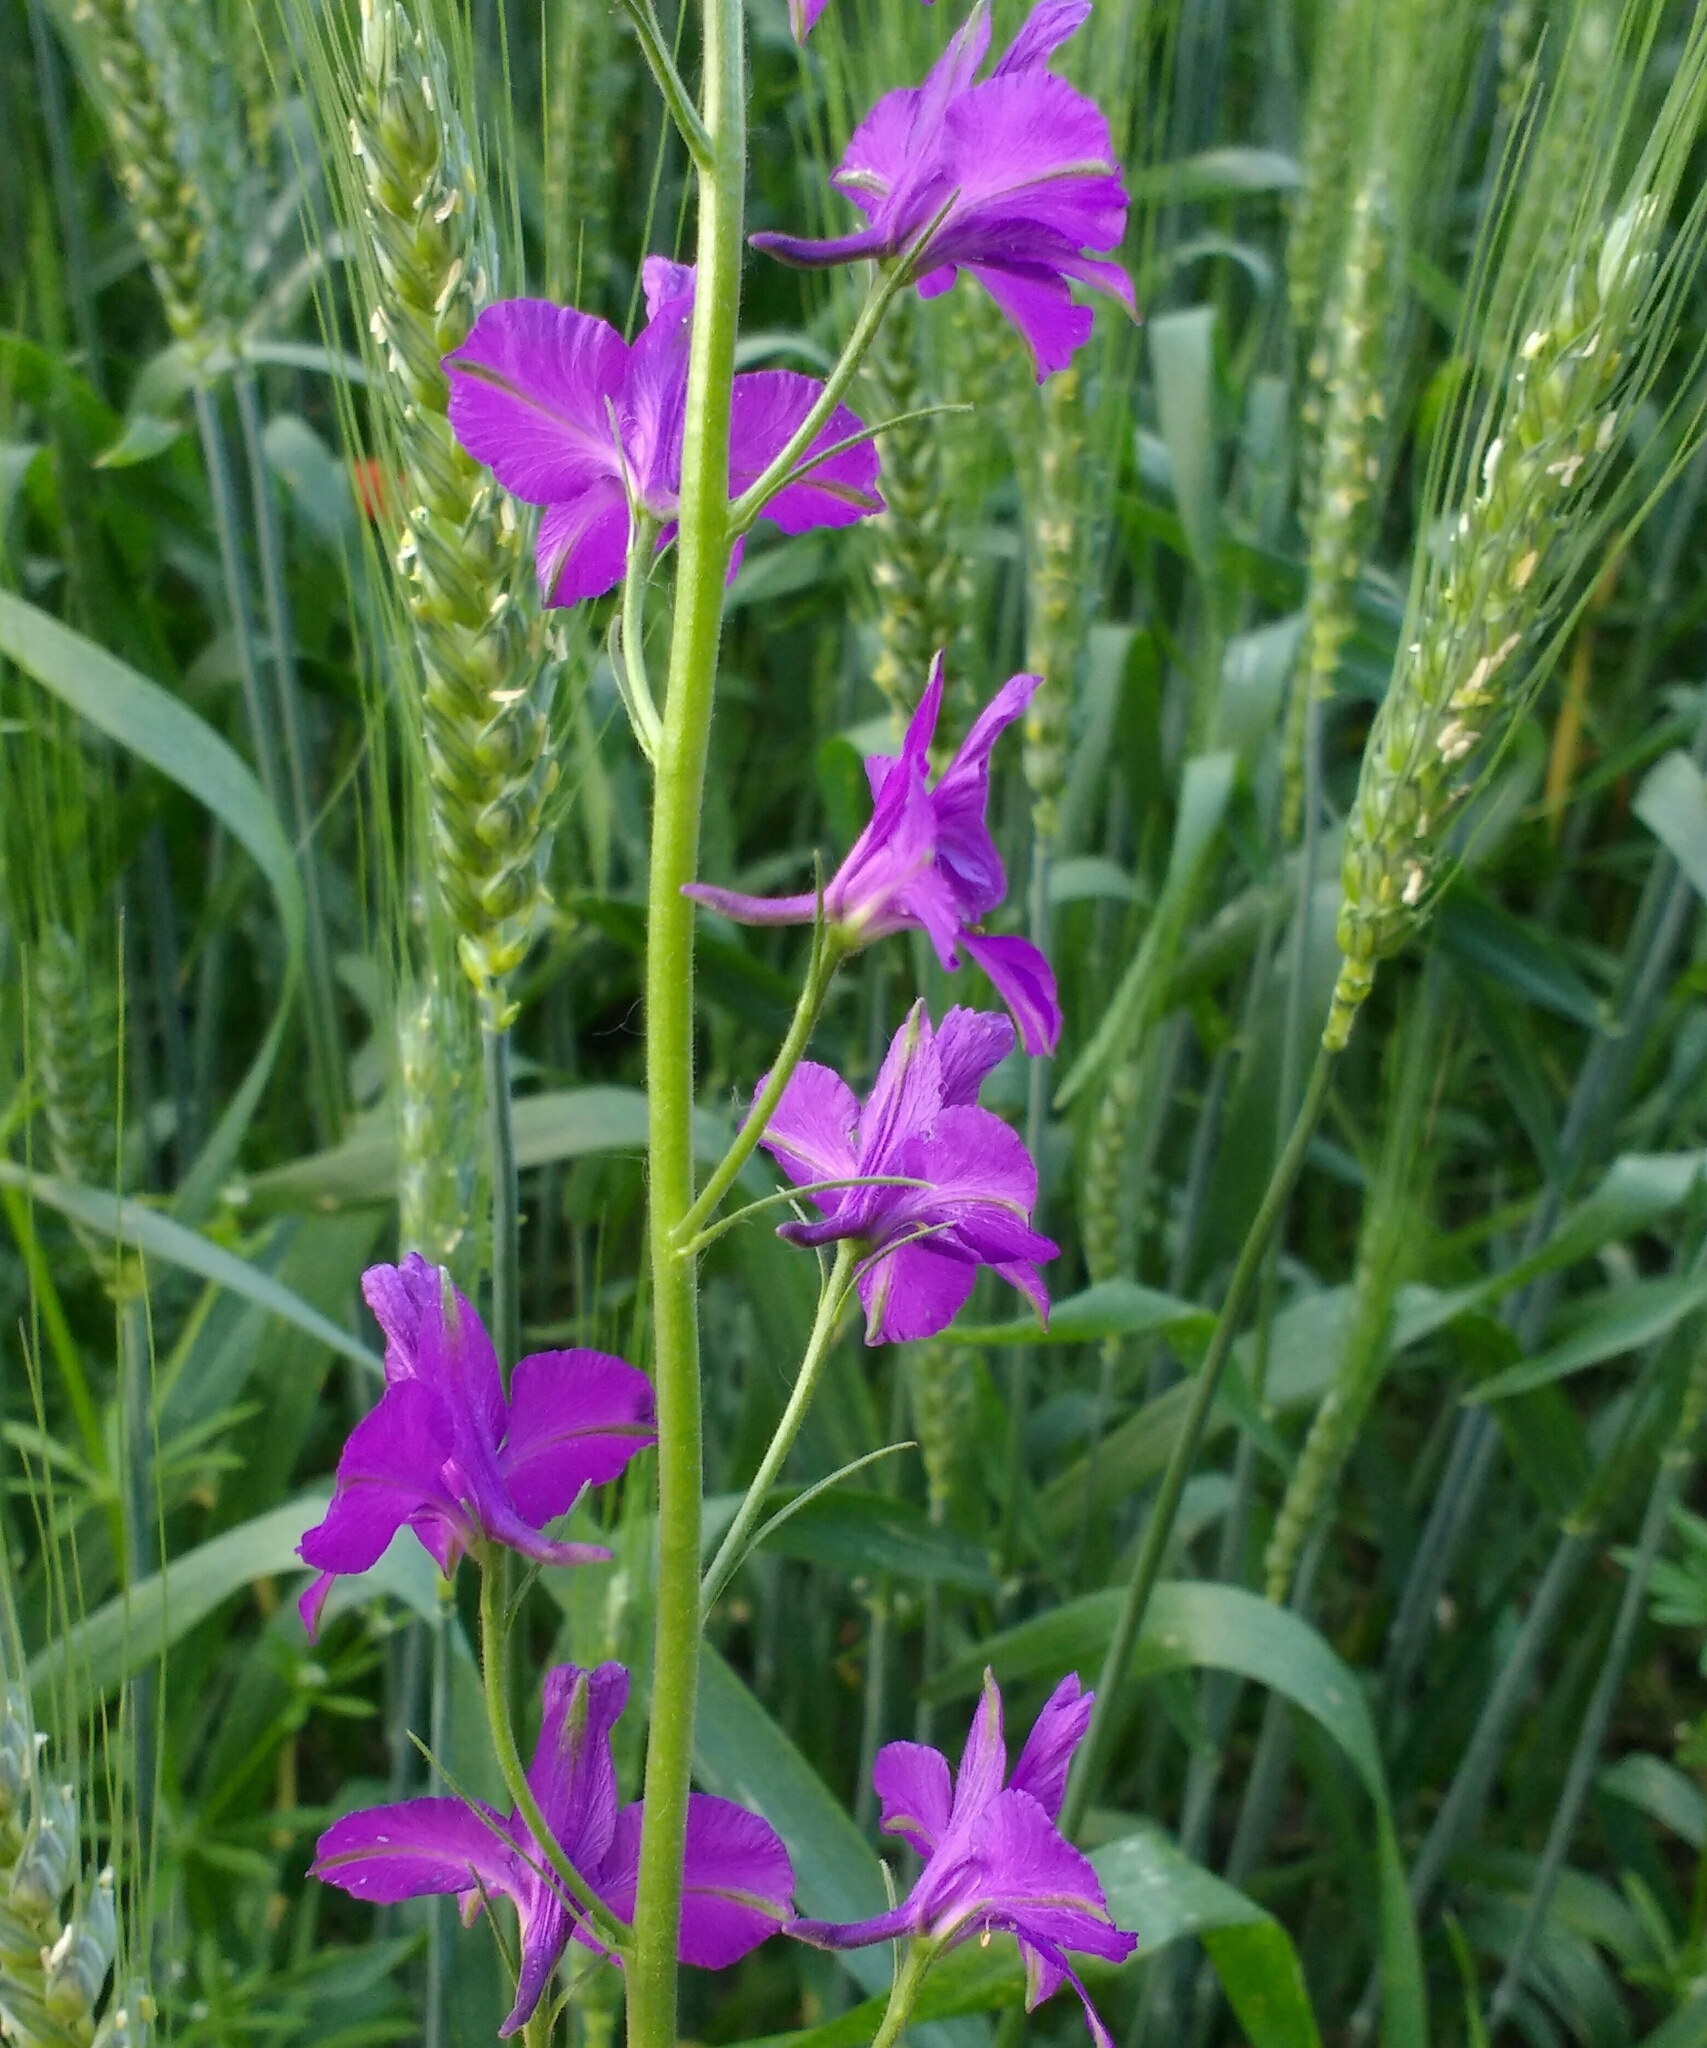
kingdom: Plantae
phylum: Tracheophyta
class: Magnoliopsida
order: Ranunculales
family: Ranunculaceae
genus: Delphinium
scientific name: Delphinium ajacis
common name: Doubtful knight's-spur
